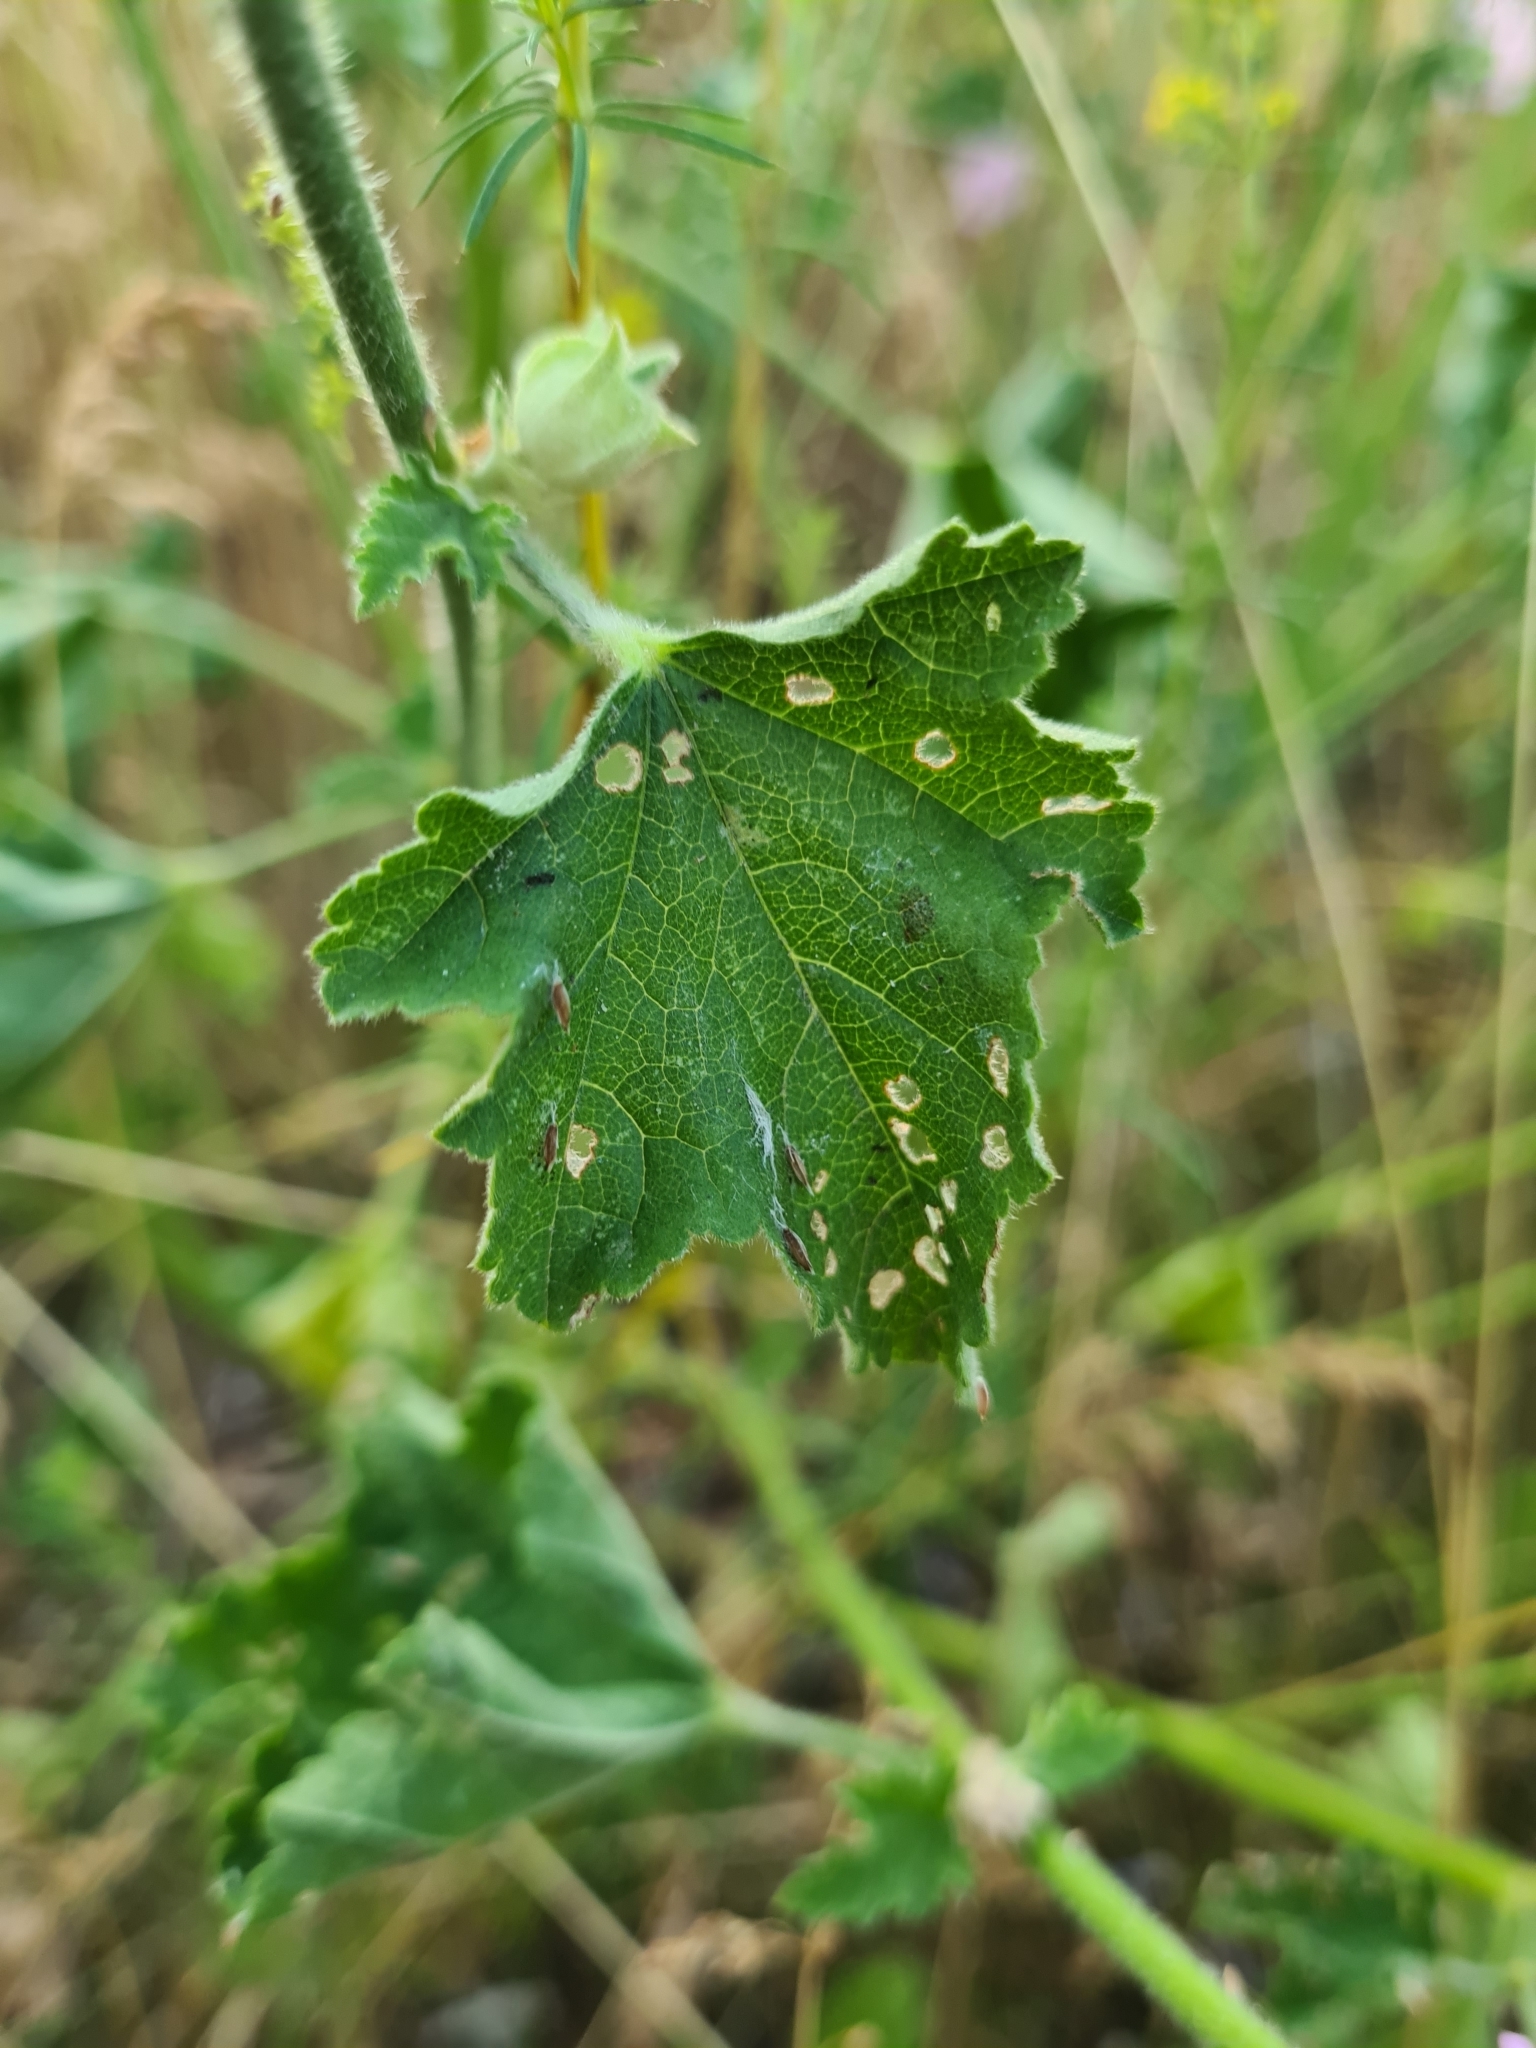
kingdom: Plantae
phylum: Tracheophyta
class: Magnoliopsida
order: Malvales
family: Malvaceae
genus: Malva
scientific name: Malva thuringiaca
